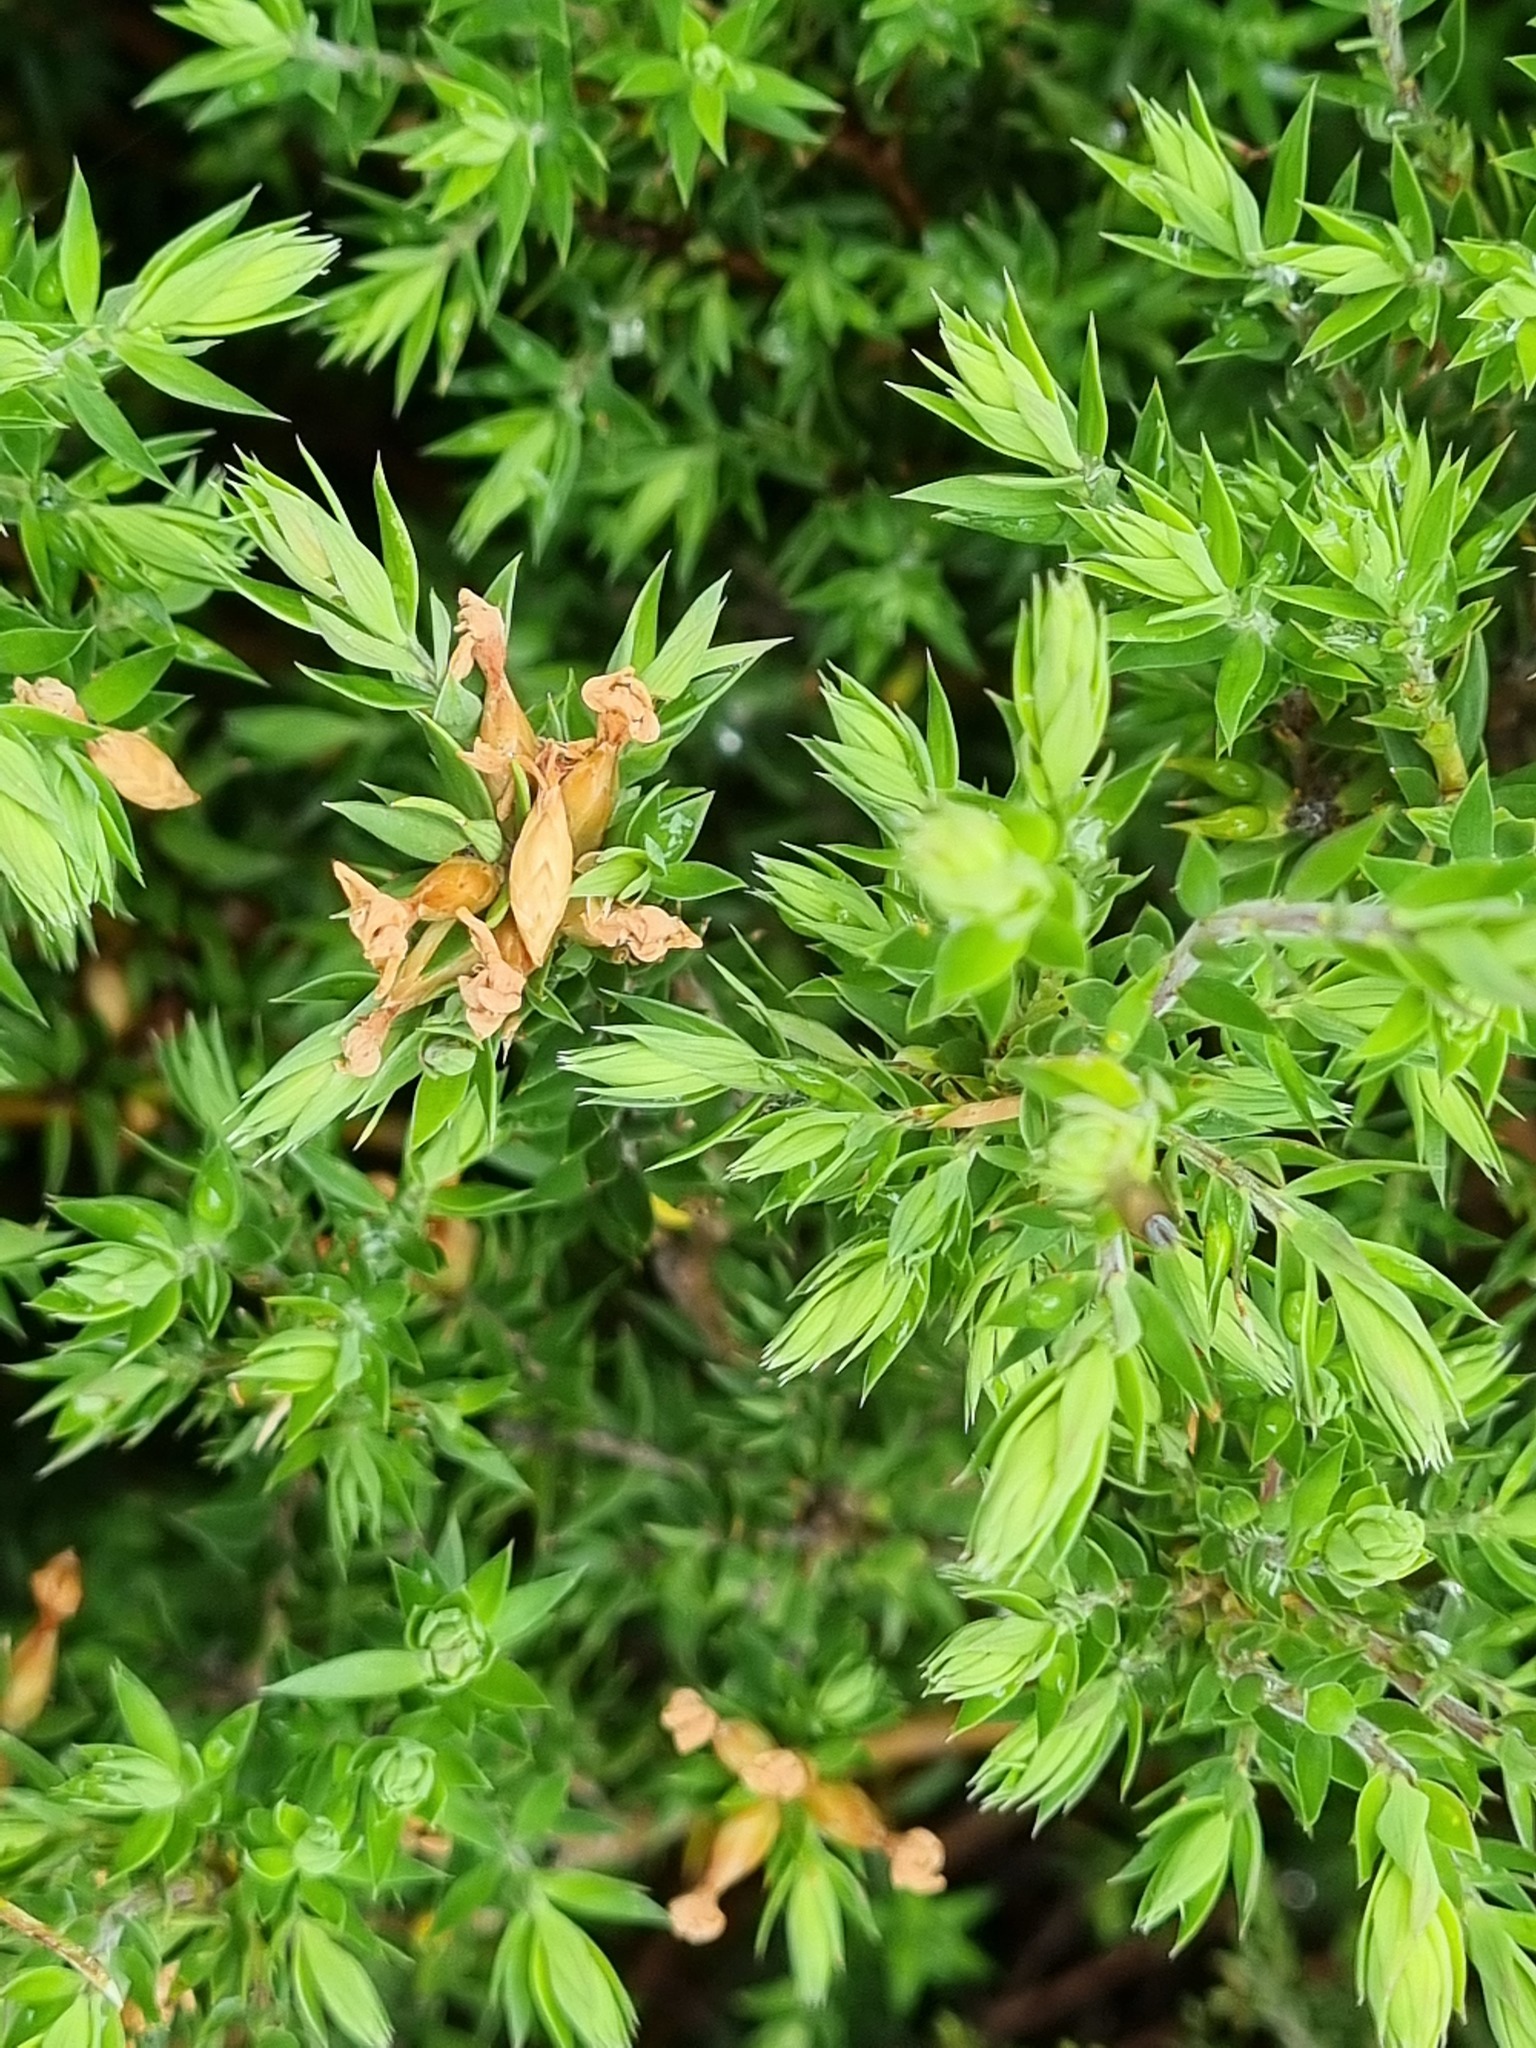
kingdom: Plantae
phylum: Tracheophyta
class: Magnoliopsida
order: Ericales
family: Ericaceae
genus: Epacris
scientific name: Epacris paludosa
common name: Swamp-heath
